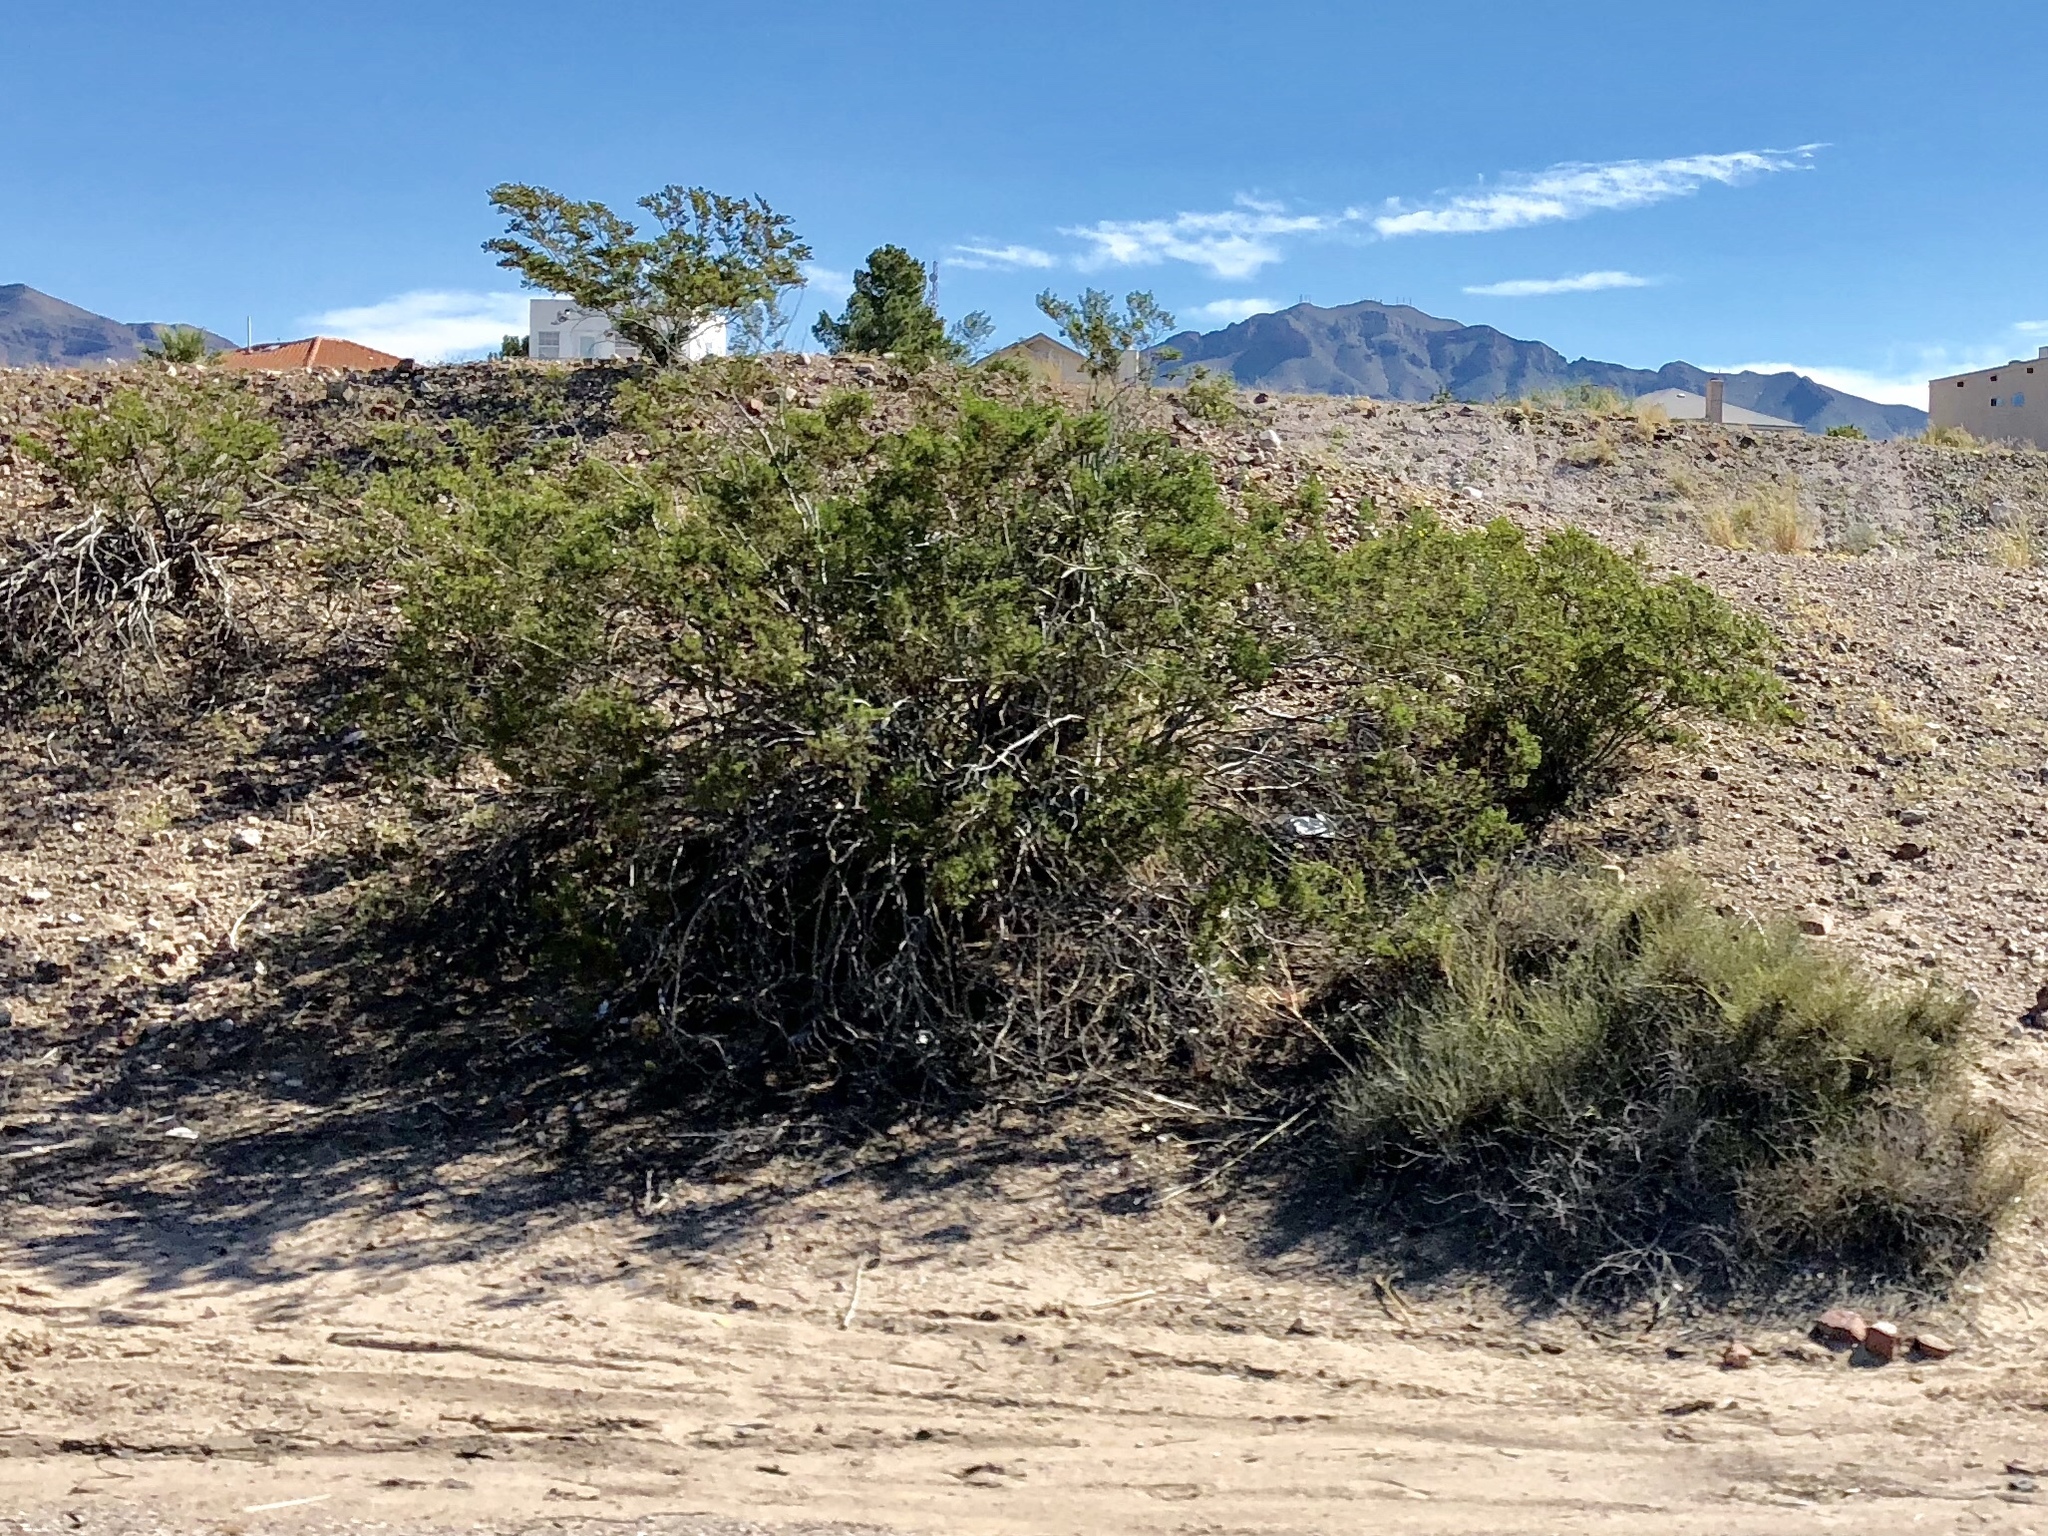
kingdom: Plantae
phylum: Tracheophyta
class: Magnoliopsida
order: Zygophyllales
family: Zygophyllaceae
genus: Larrea
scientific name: Larrea tridentata
